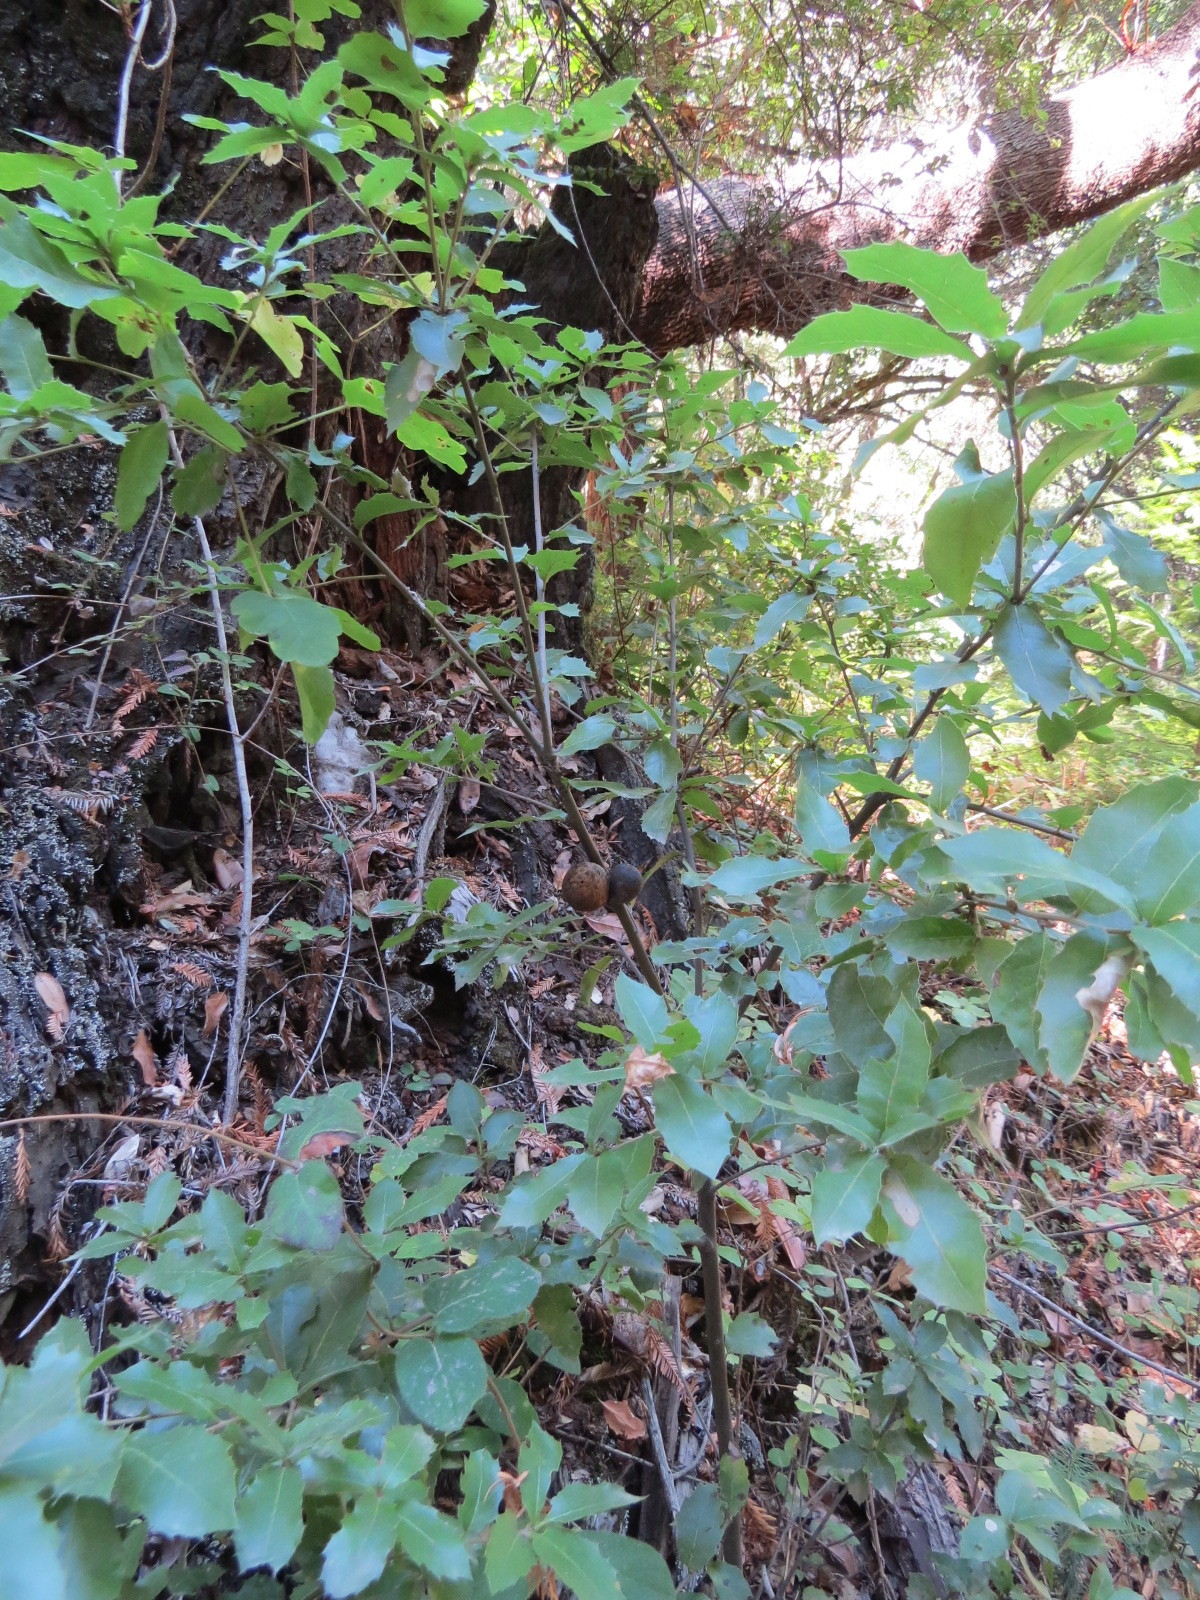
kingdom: Animalia
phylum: Arthropoda
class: Insecta
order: Hymenoptera
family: Cynipidae
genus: Amphibolips
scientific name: Amphibolips quercuspomiformis
